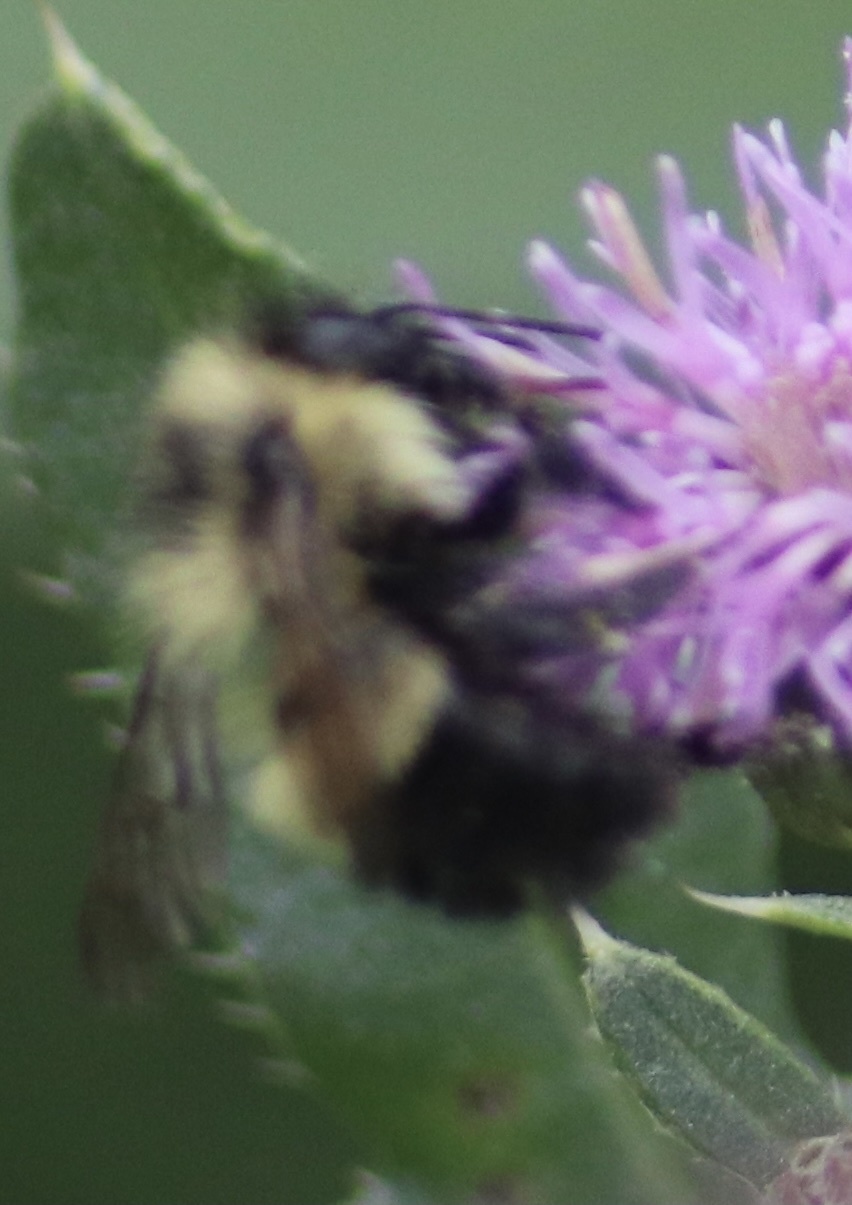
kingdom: Animalia
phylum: Arthropoda
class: Insecta
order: Hymenoptera
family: Apidae
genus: Bombus
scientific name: Bombus vagans
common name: Half-black bumble bee
